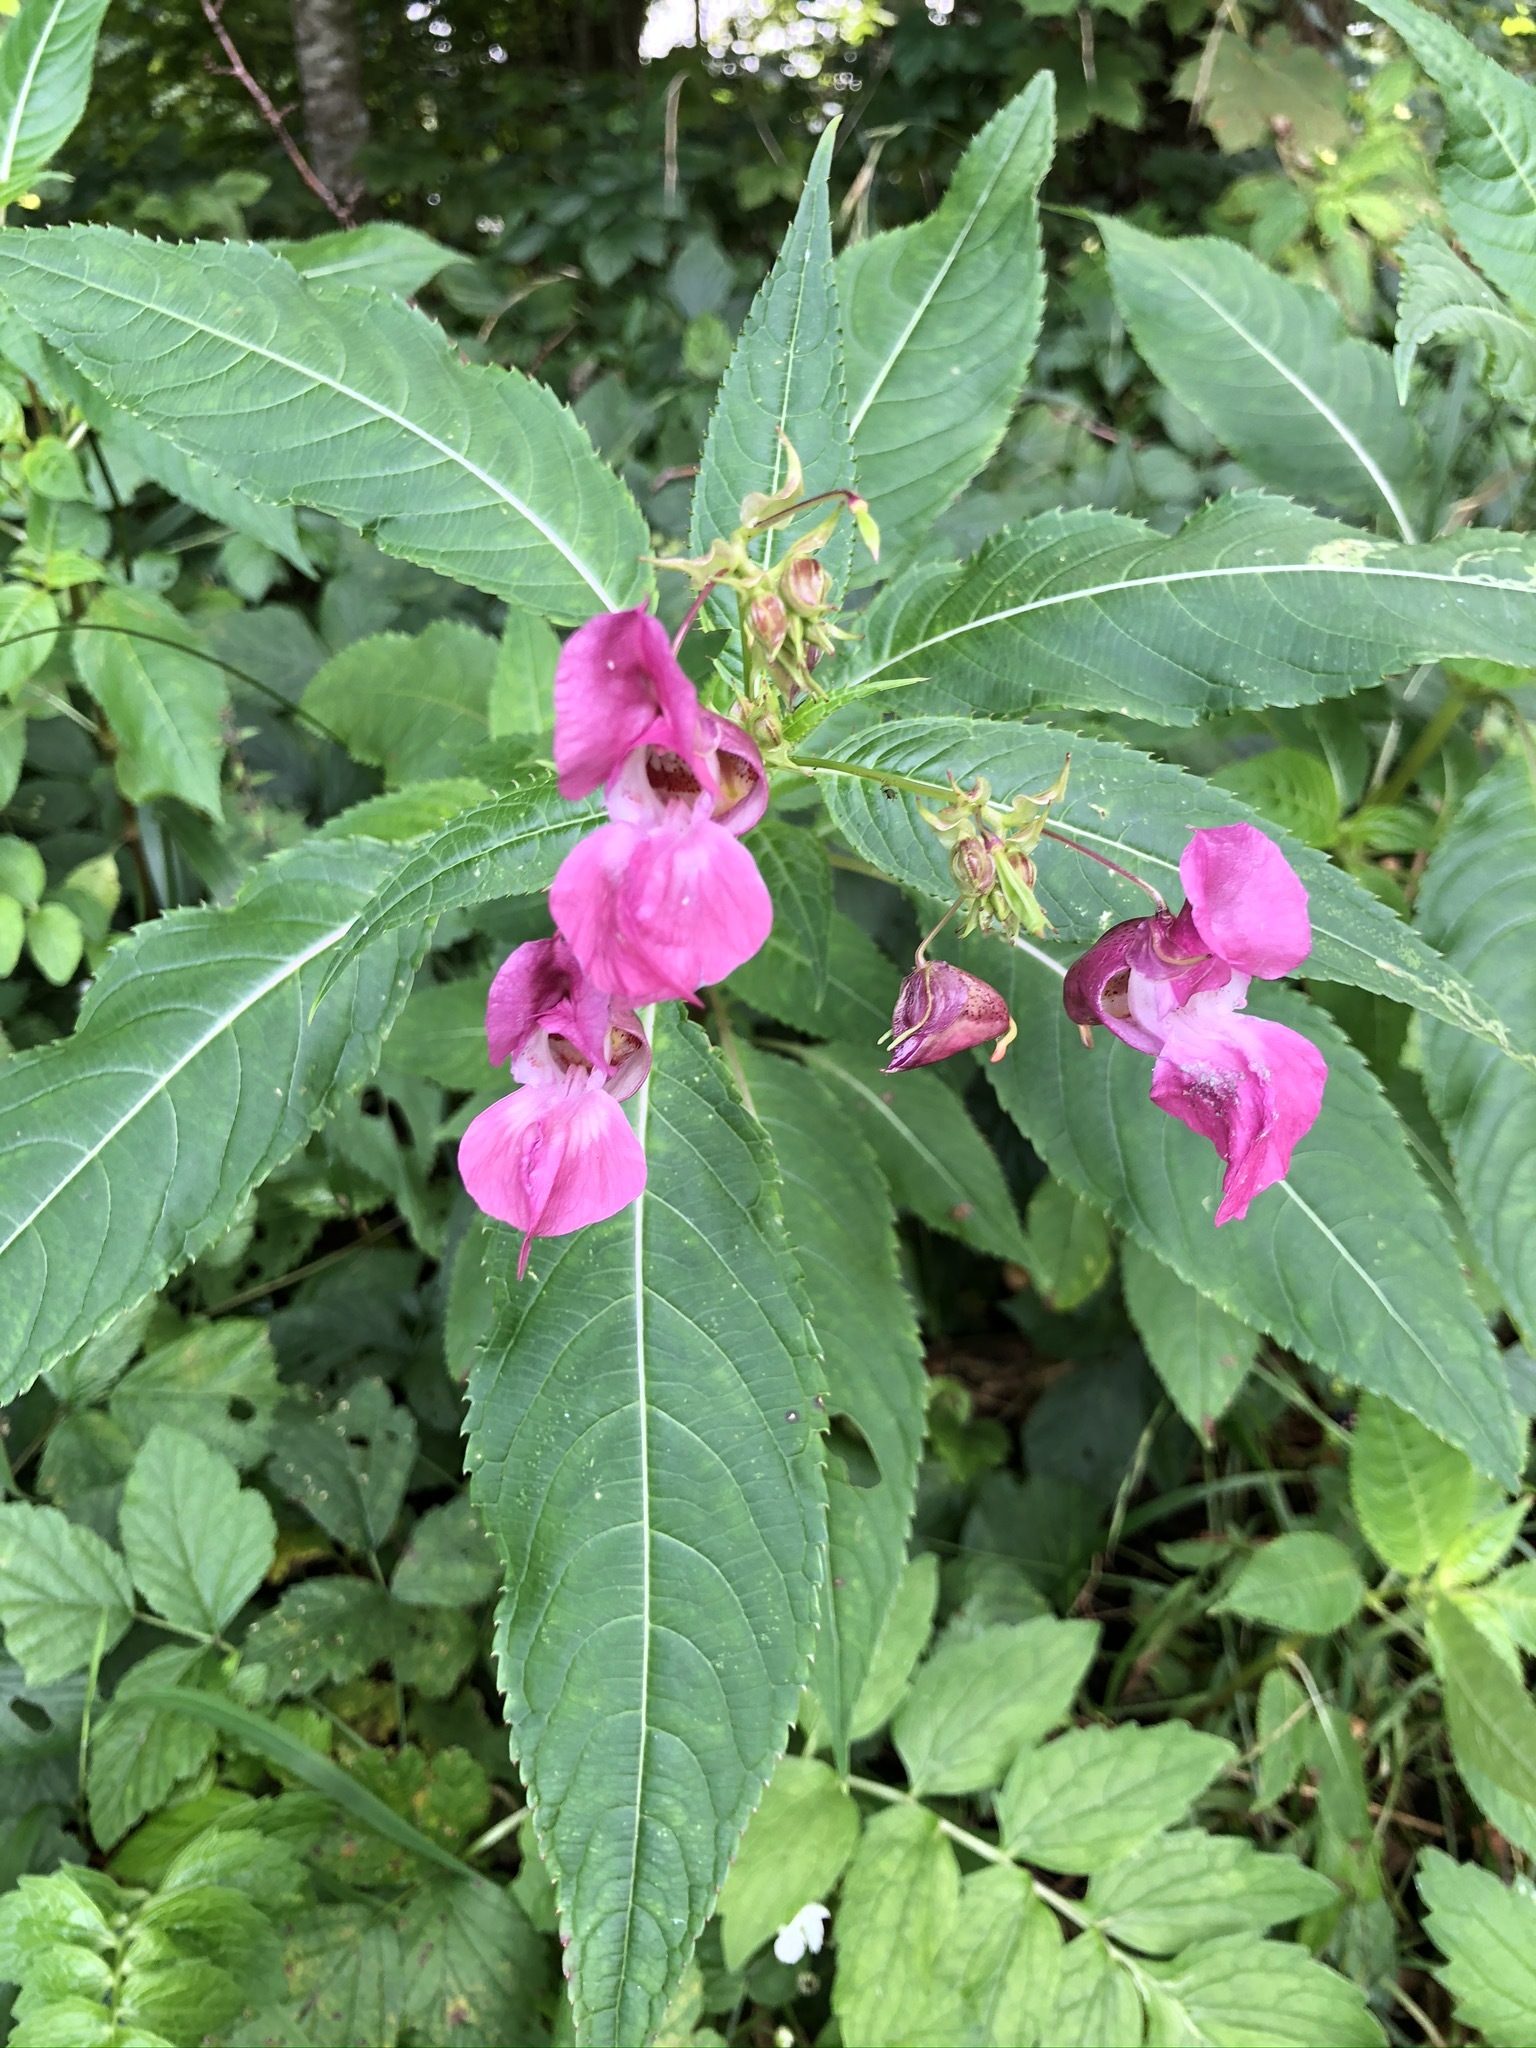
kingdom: Plantae
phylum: Tracheophyta
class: Magnoliopsida
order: Ericales
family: Balsaminaceae
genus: Impatiens
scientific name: Impatiens glandulifera
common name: Himalayan balsam
